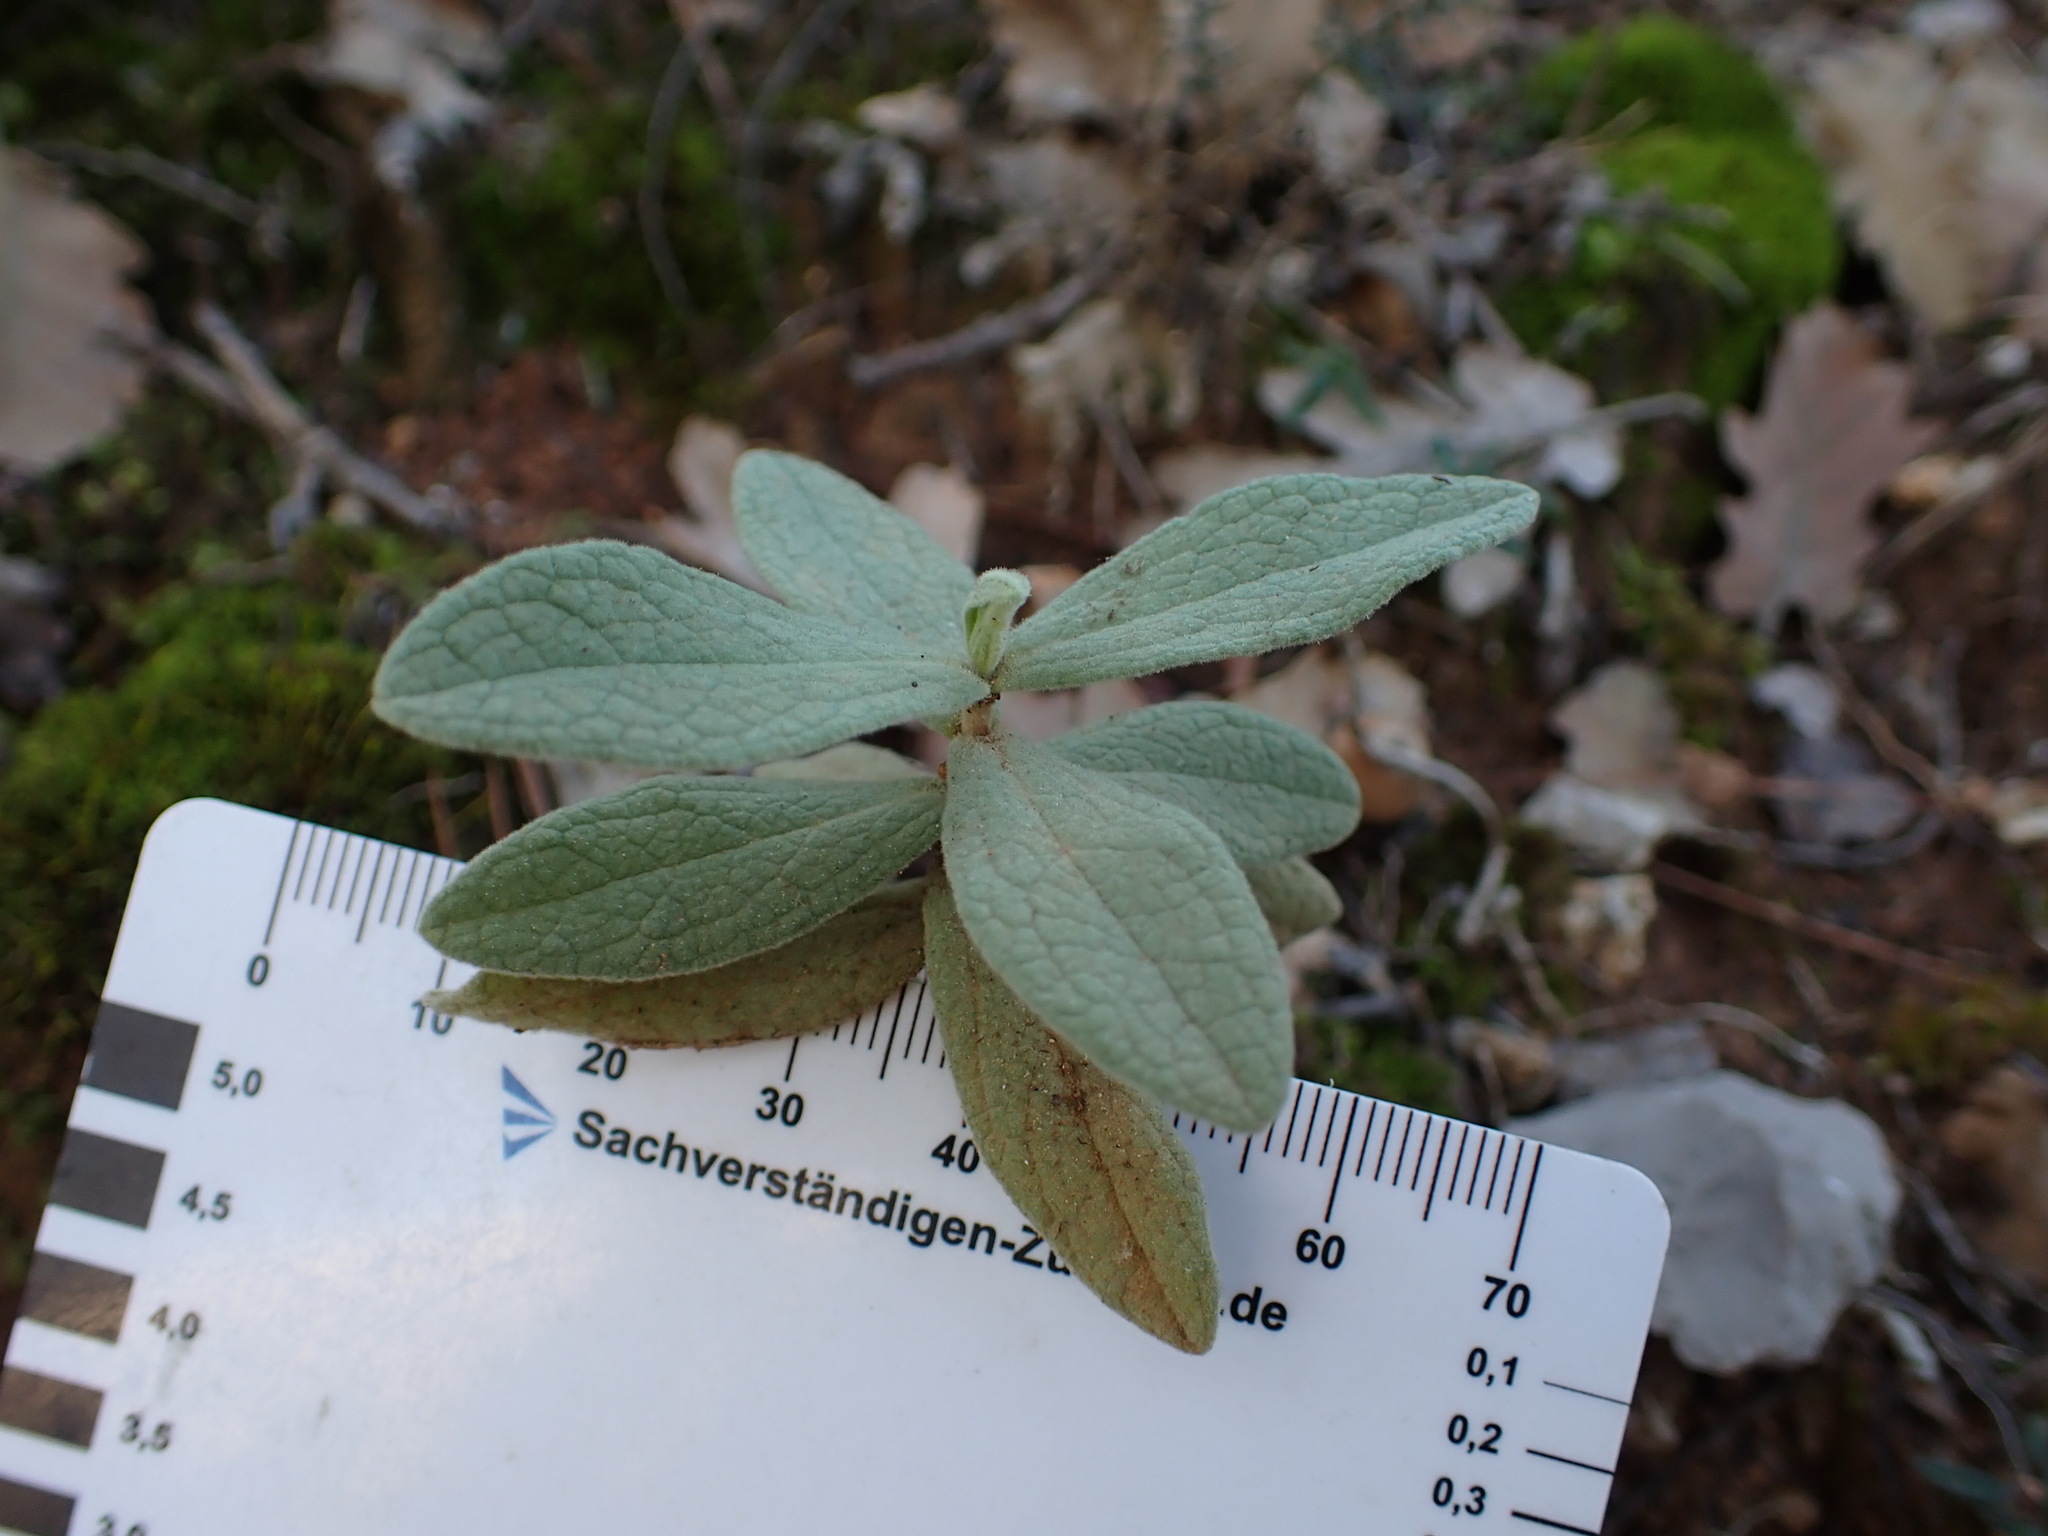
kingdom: Plantae
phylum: Tracheophyta
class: Magnoliopsida
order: Malvales
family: Cistaceae
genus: Cistus
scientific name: Cistus albidus
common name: White-leaf rock-rose
